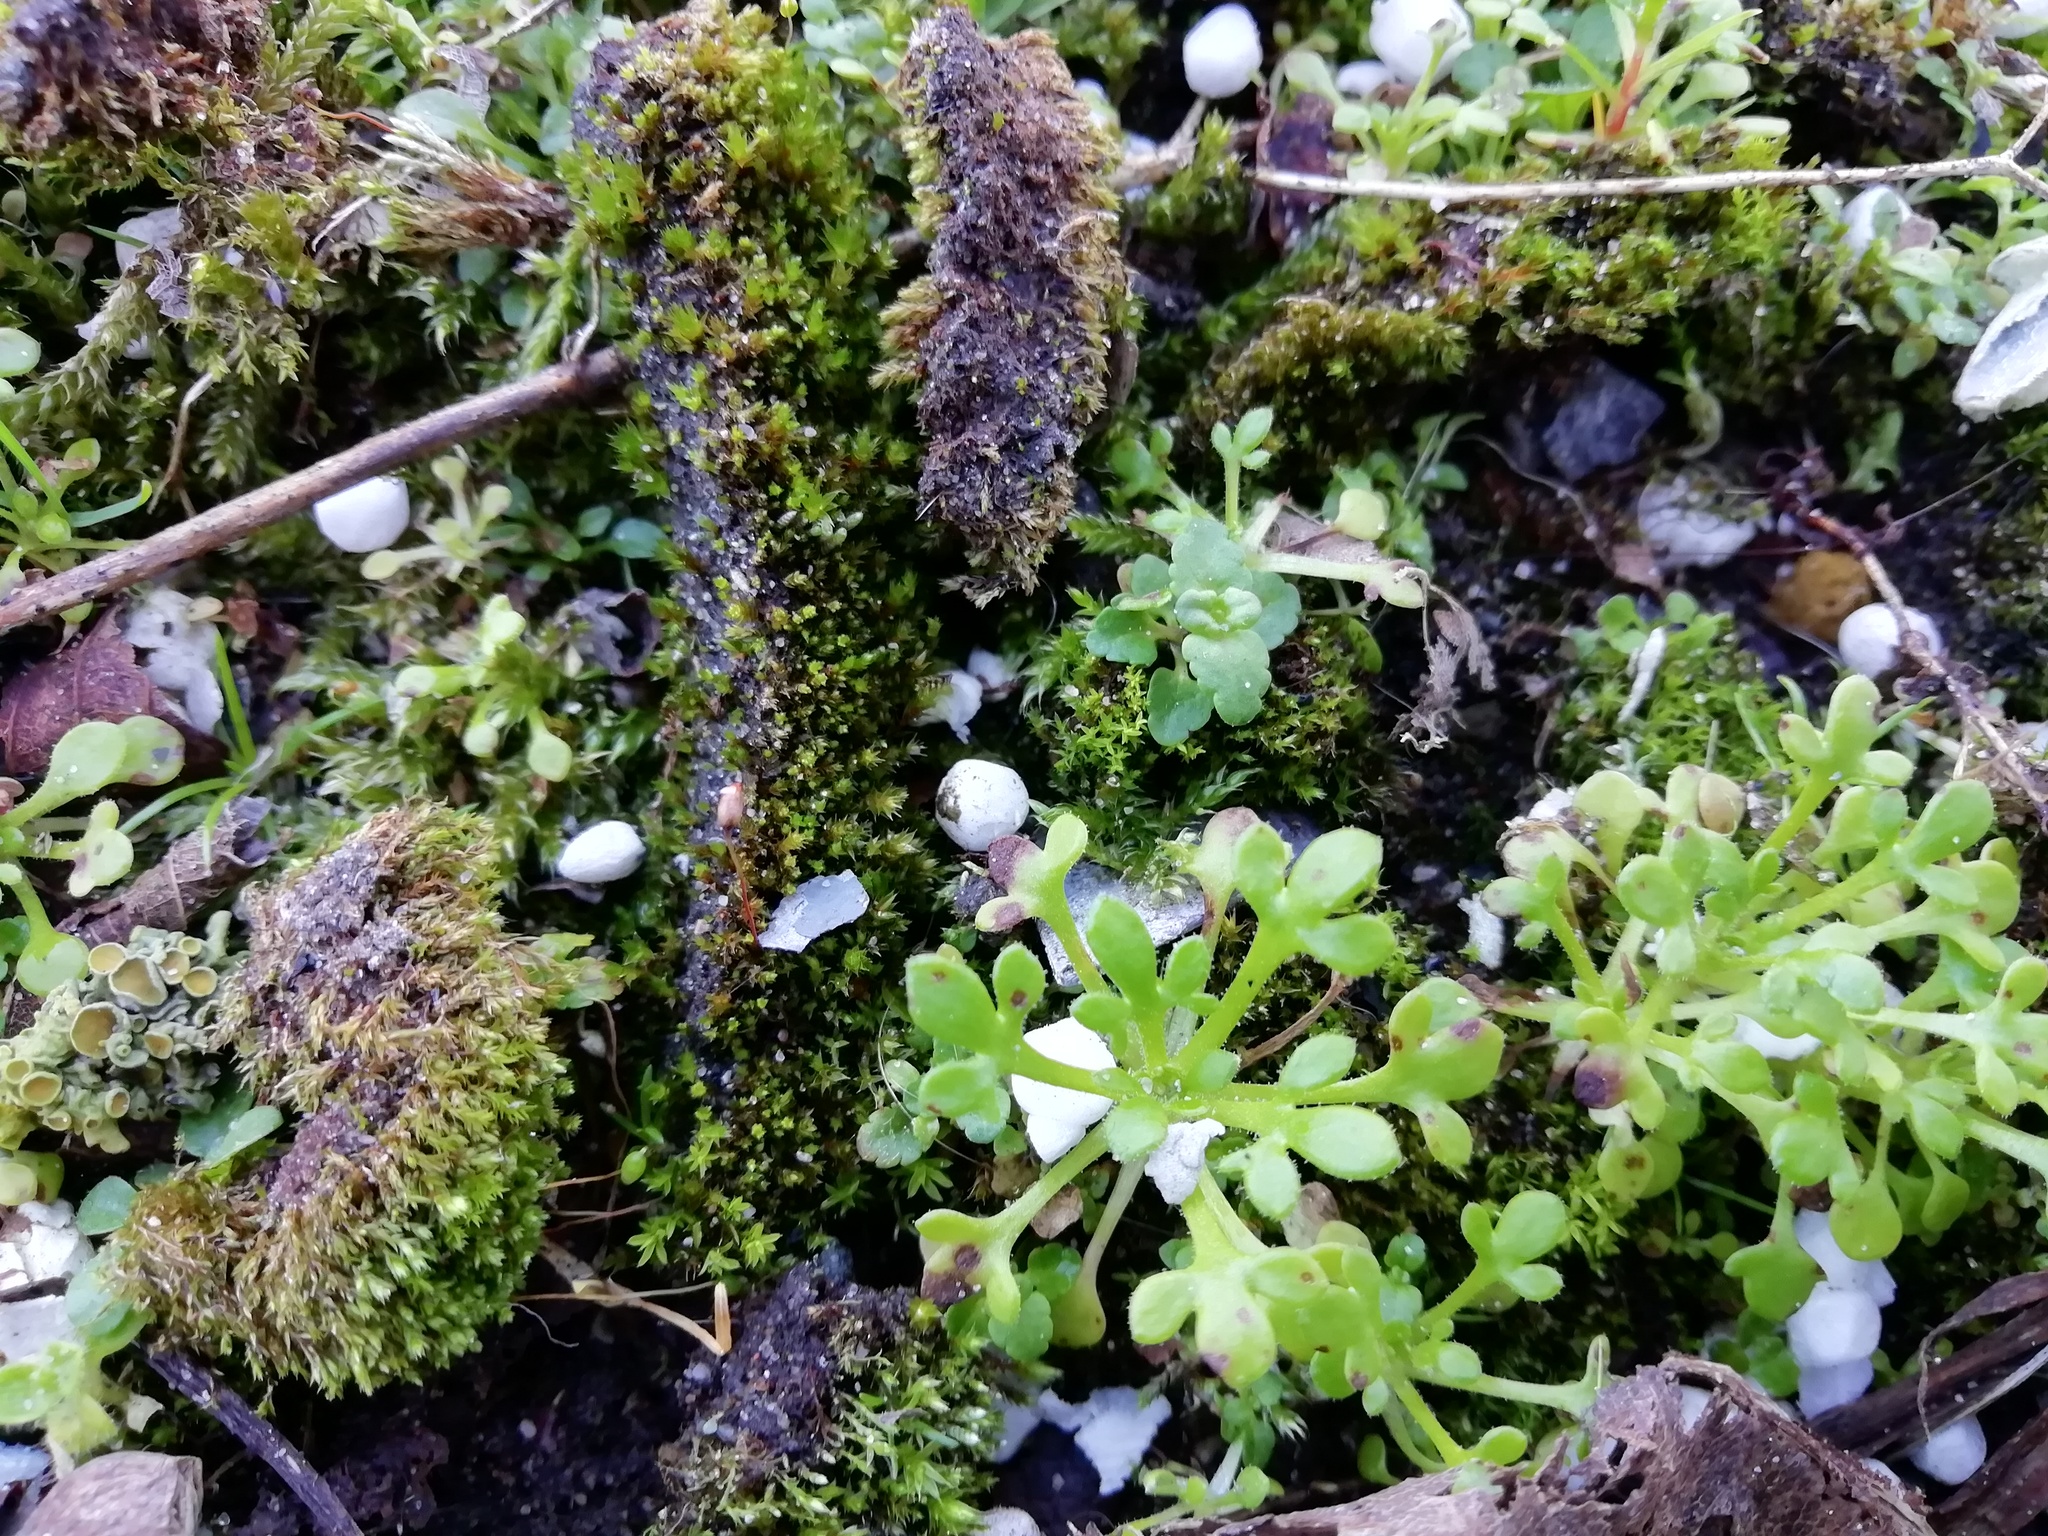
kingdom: Plantae
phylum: Tracheophyta
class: Magnoliopsida
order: Saxifragales
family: Saxifragaceae
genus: Saxifraga
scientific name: Saxifraga tridactylites
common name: Rue-leaved saxifrage
